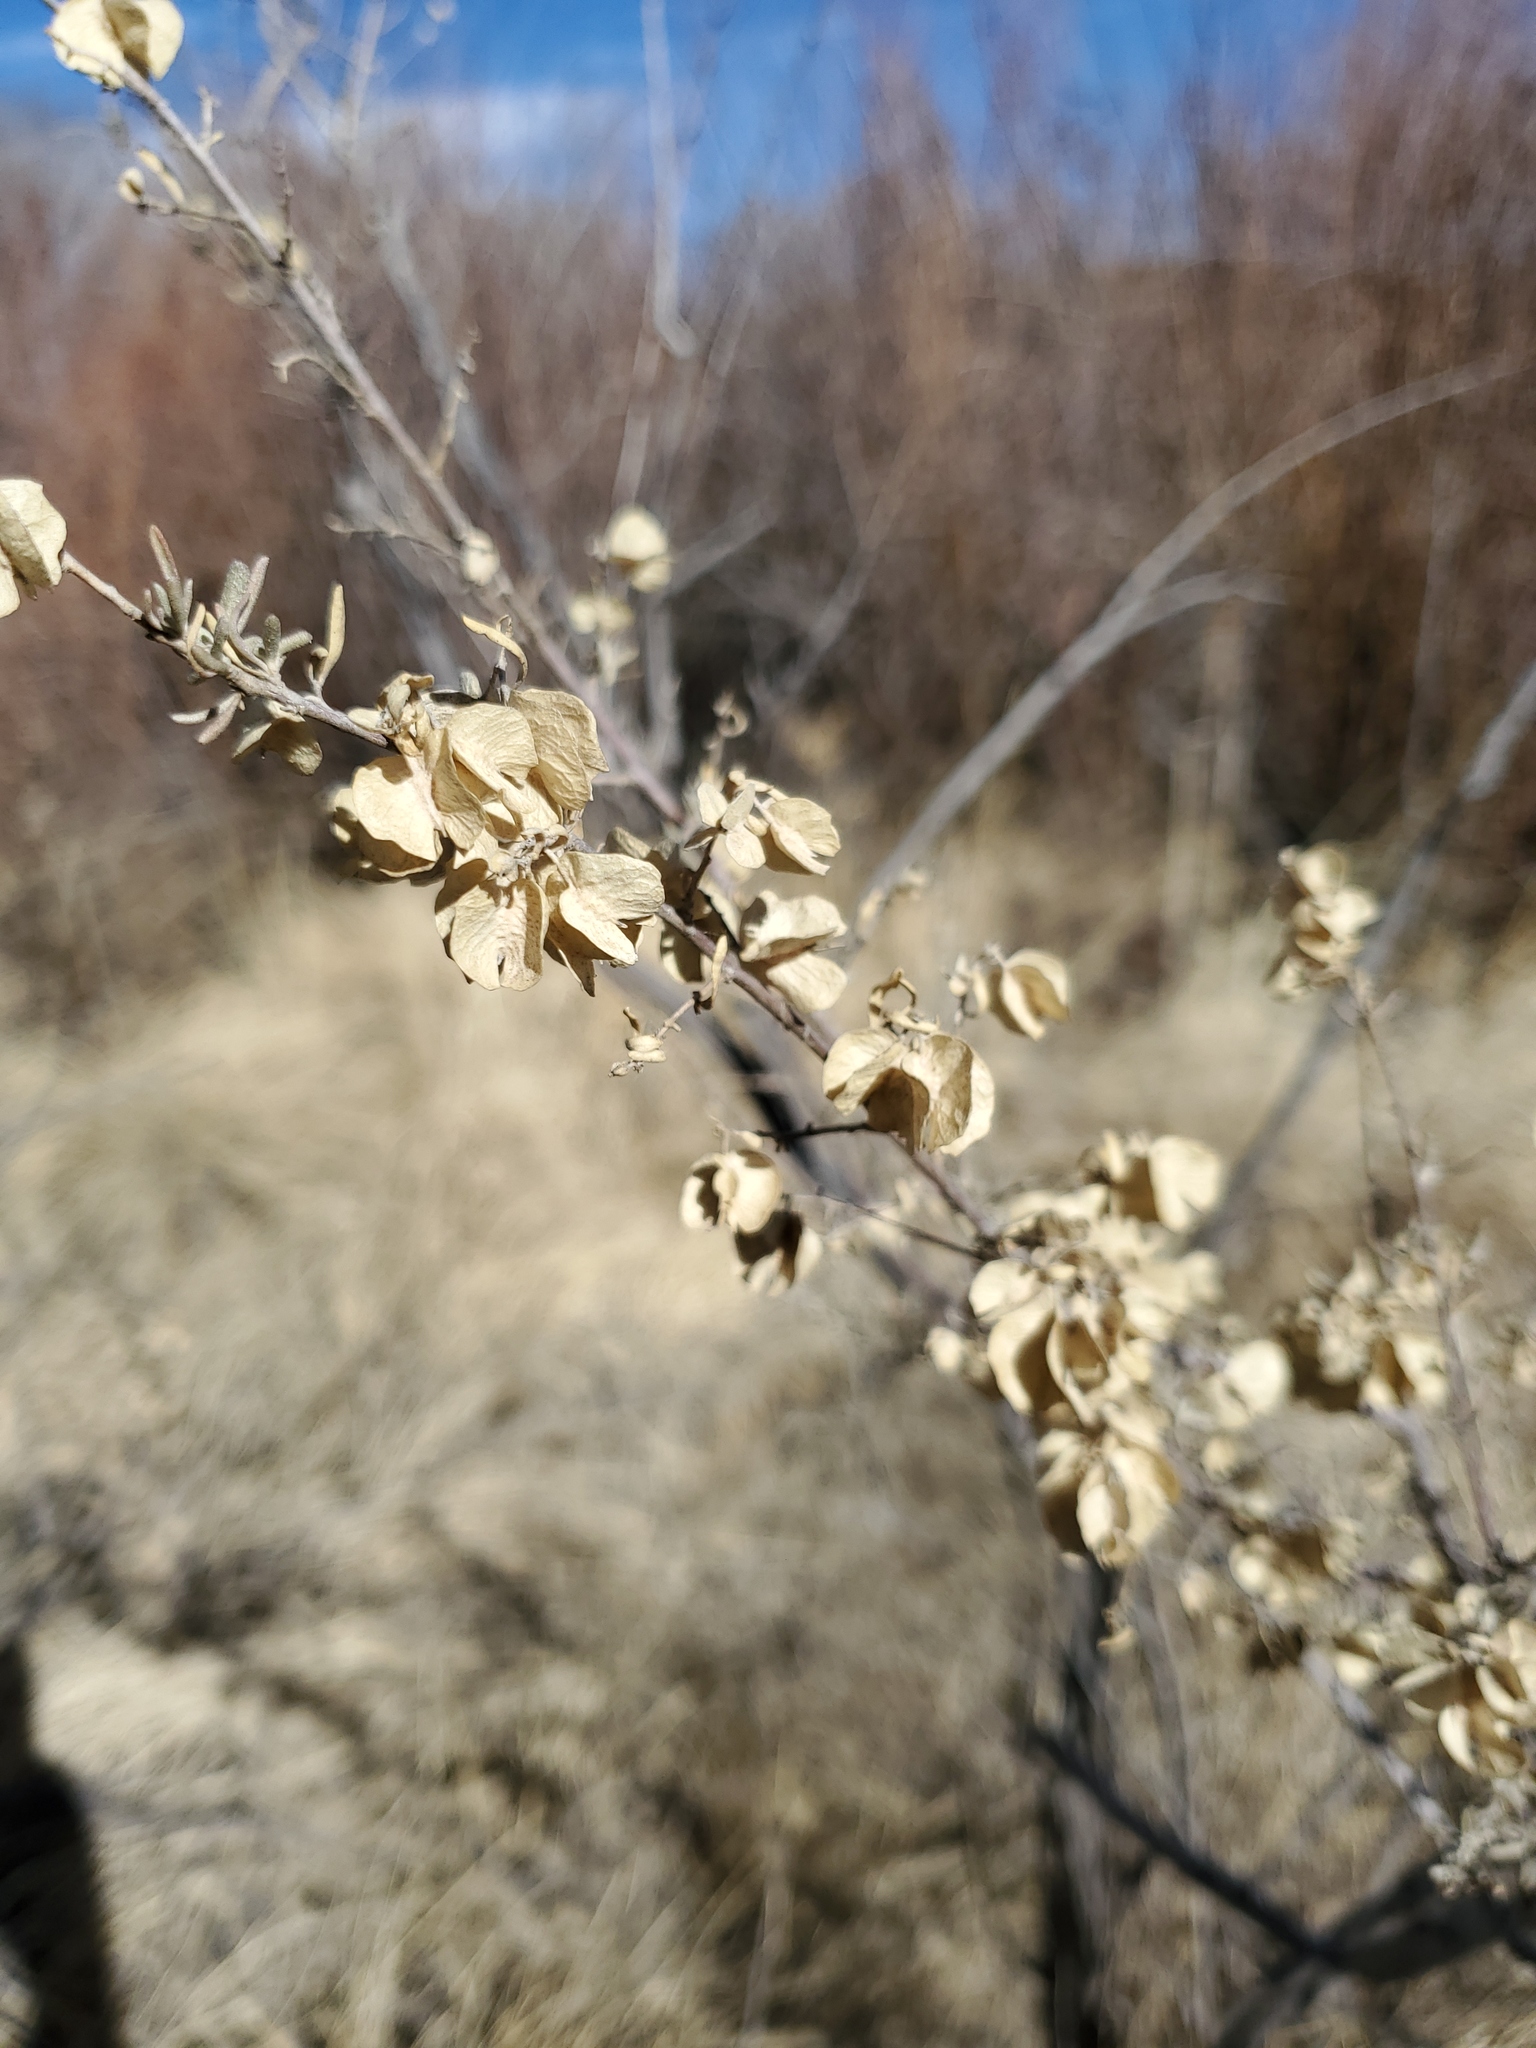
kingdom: Plantae
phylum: Tracheophyta
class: Magnoliopsida
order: Caryophyllales
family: Amaranthaceae
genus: Atriplex
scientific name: Atriplex canescens
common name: Four-wing saltbush
